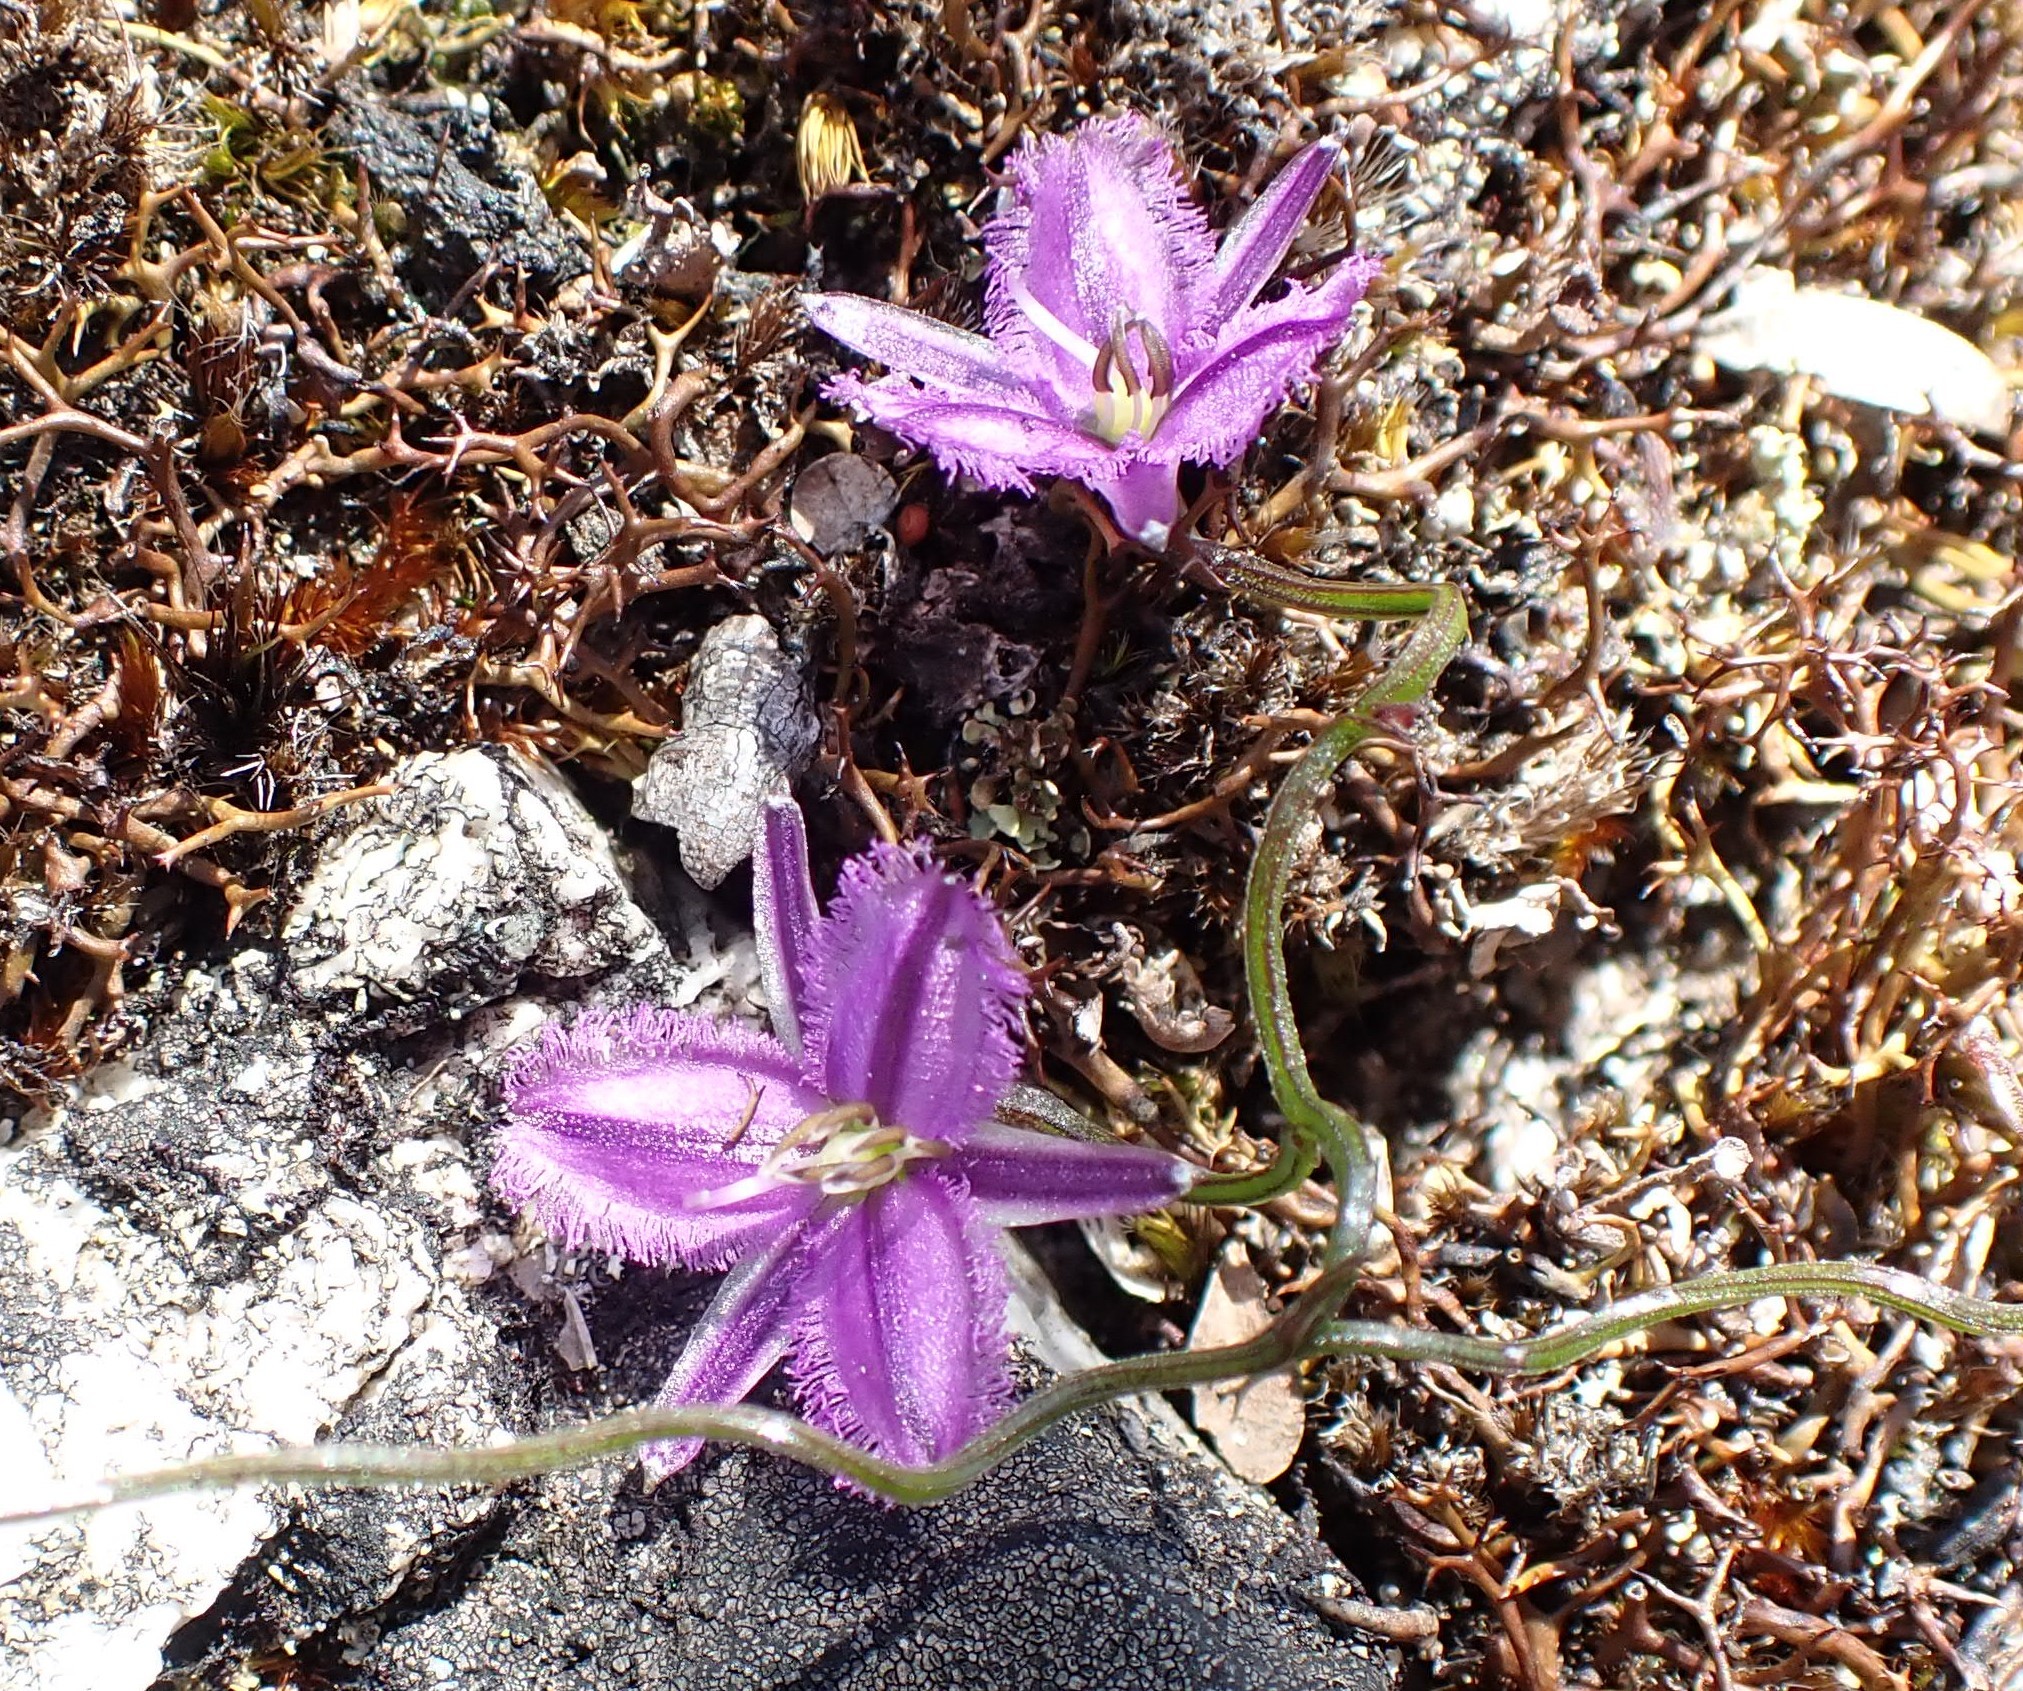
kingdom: Plantae
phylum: Tracheophyta
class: Liliopsida
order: Asparagales
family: Asparagaceae
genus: Thysanotus
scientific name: Thysanotus patersonii
